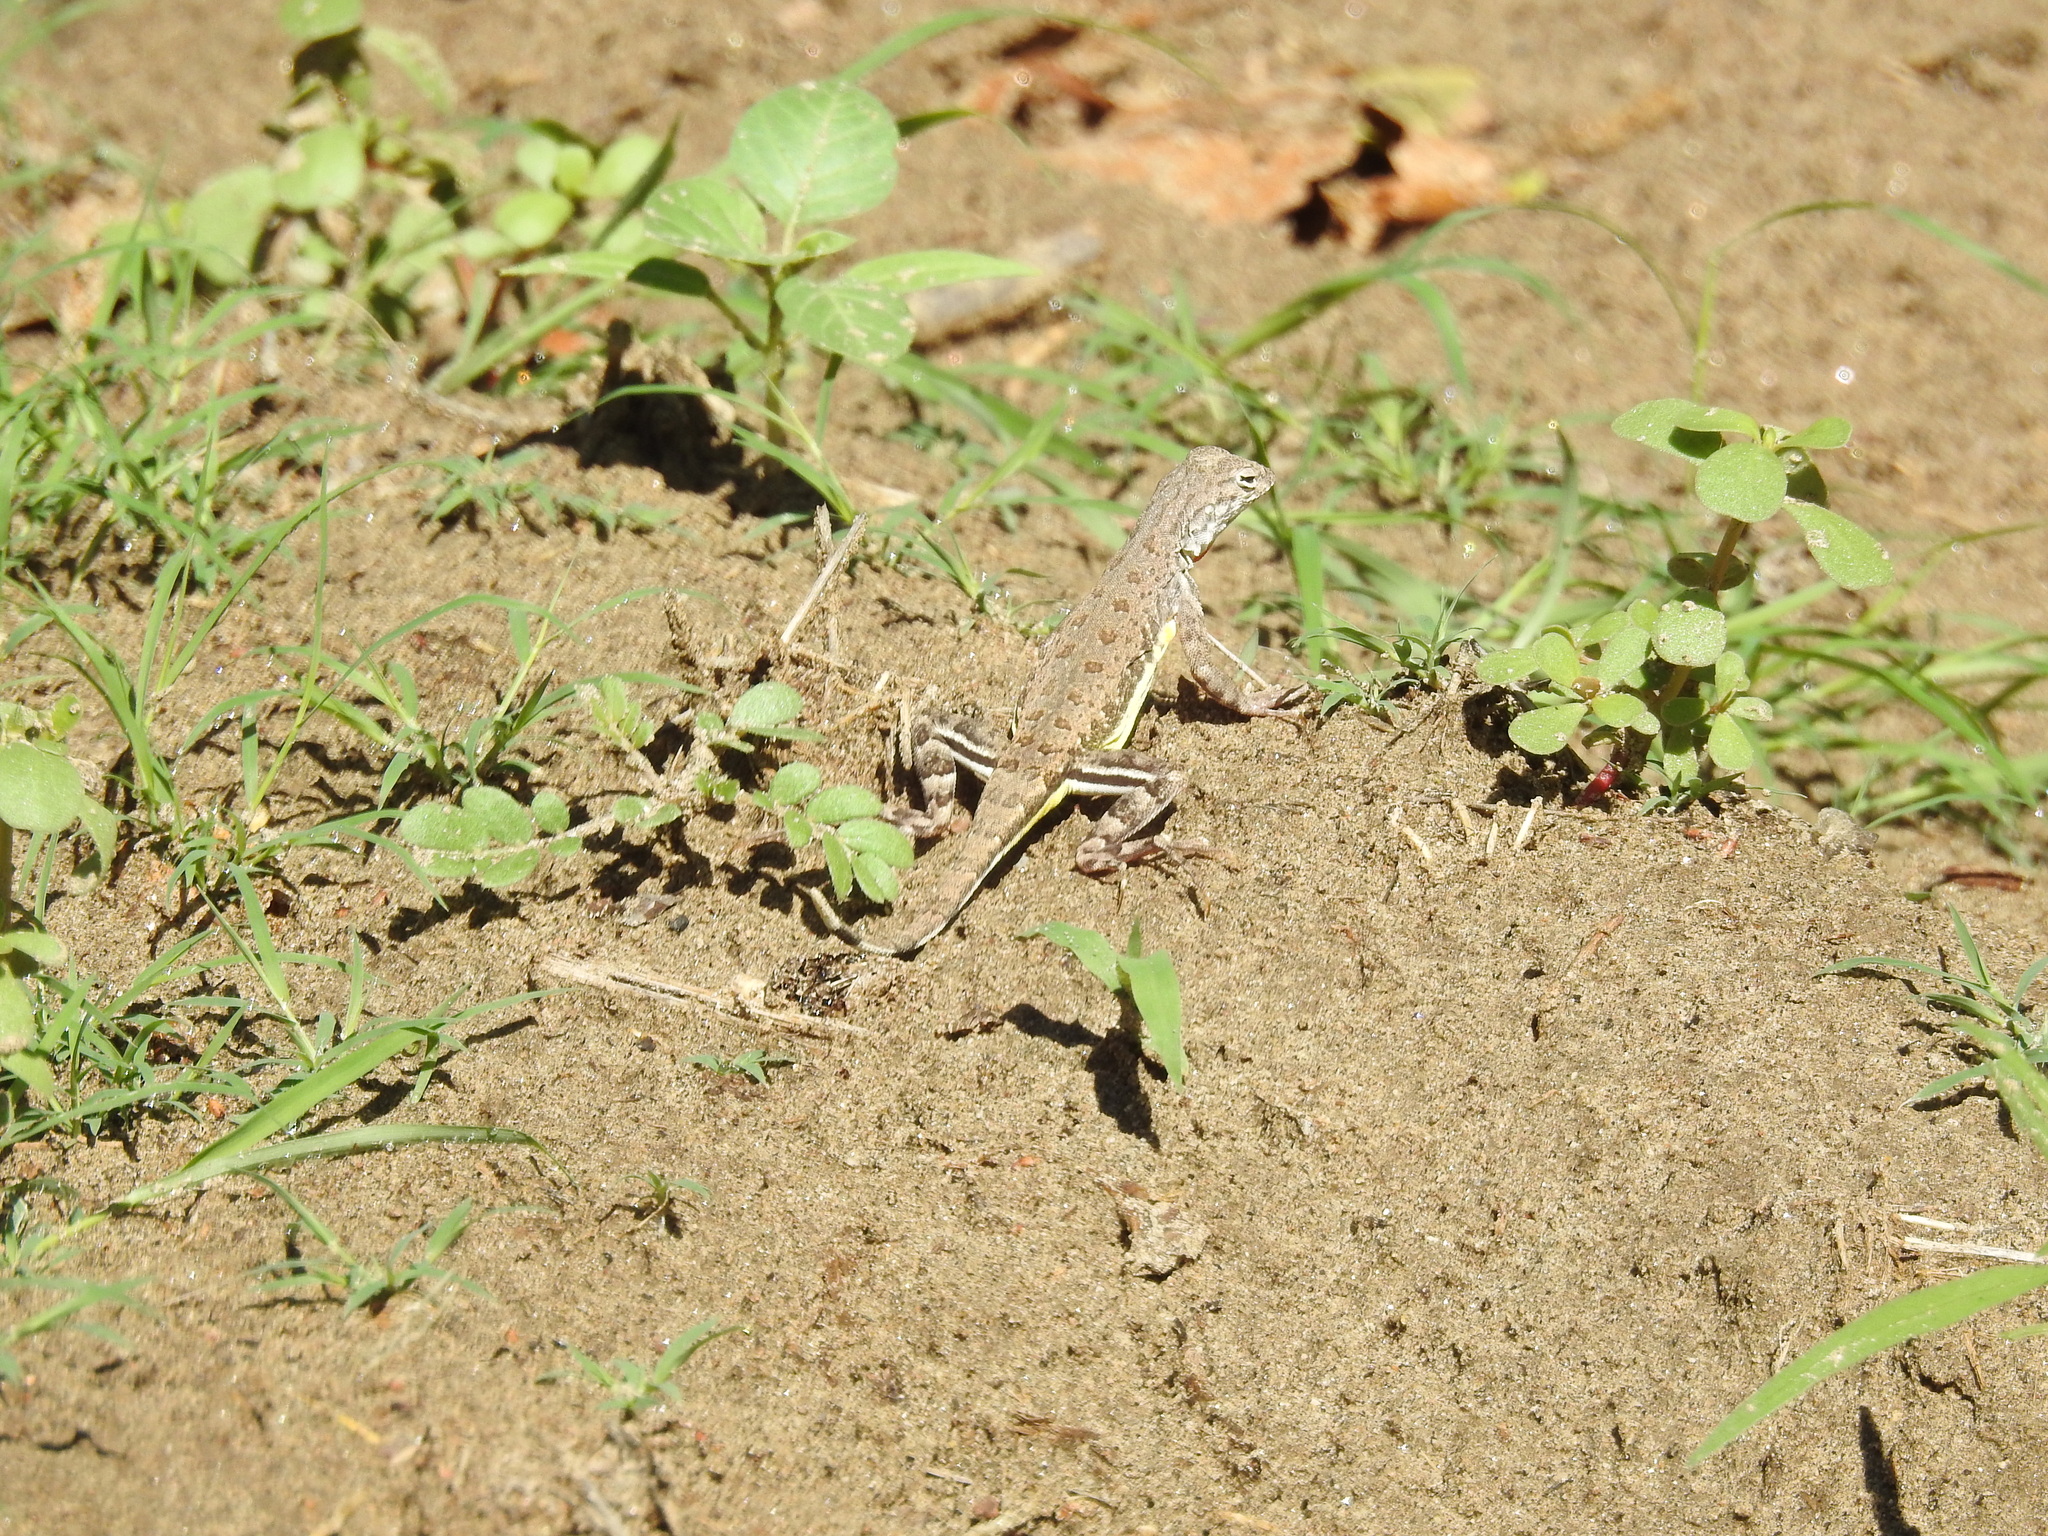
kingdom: Animalia
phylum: Chordata
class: Squamata
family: Phrynosomatidae
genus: Callisaurus
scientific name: Callisaurus draconoides
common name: Zebra-tailed lizard
